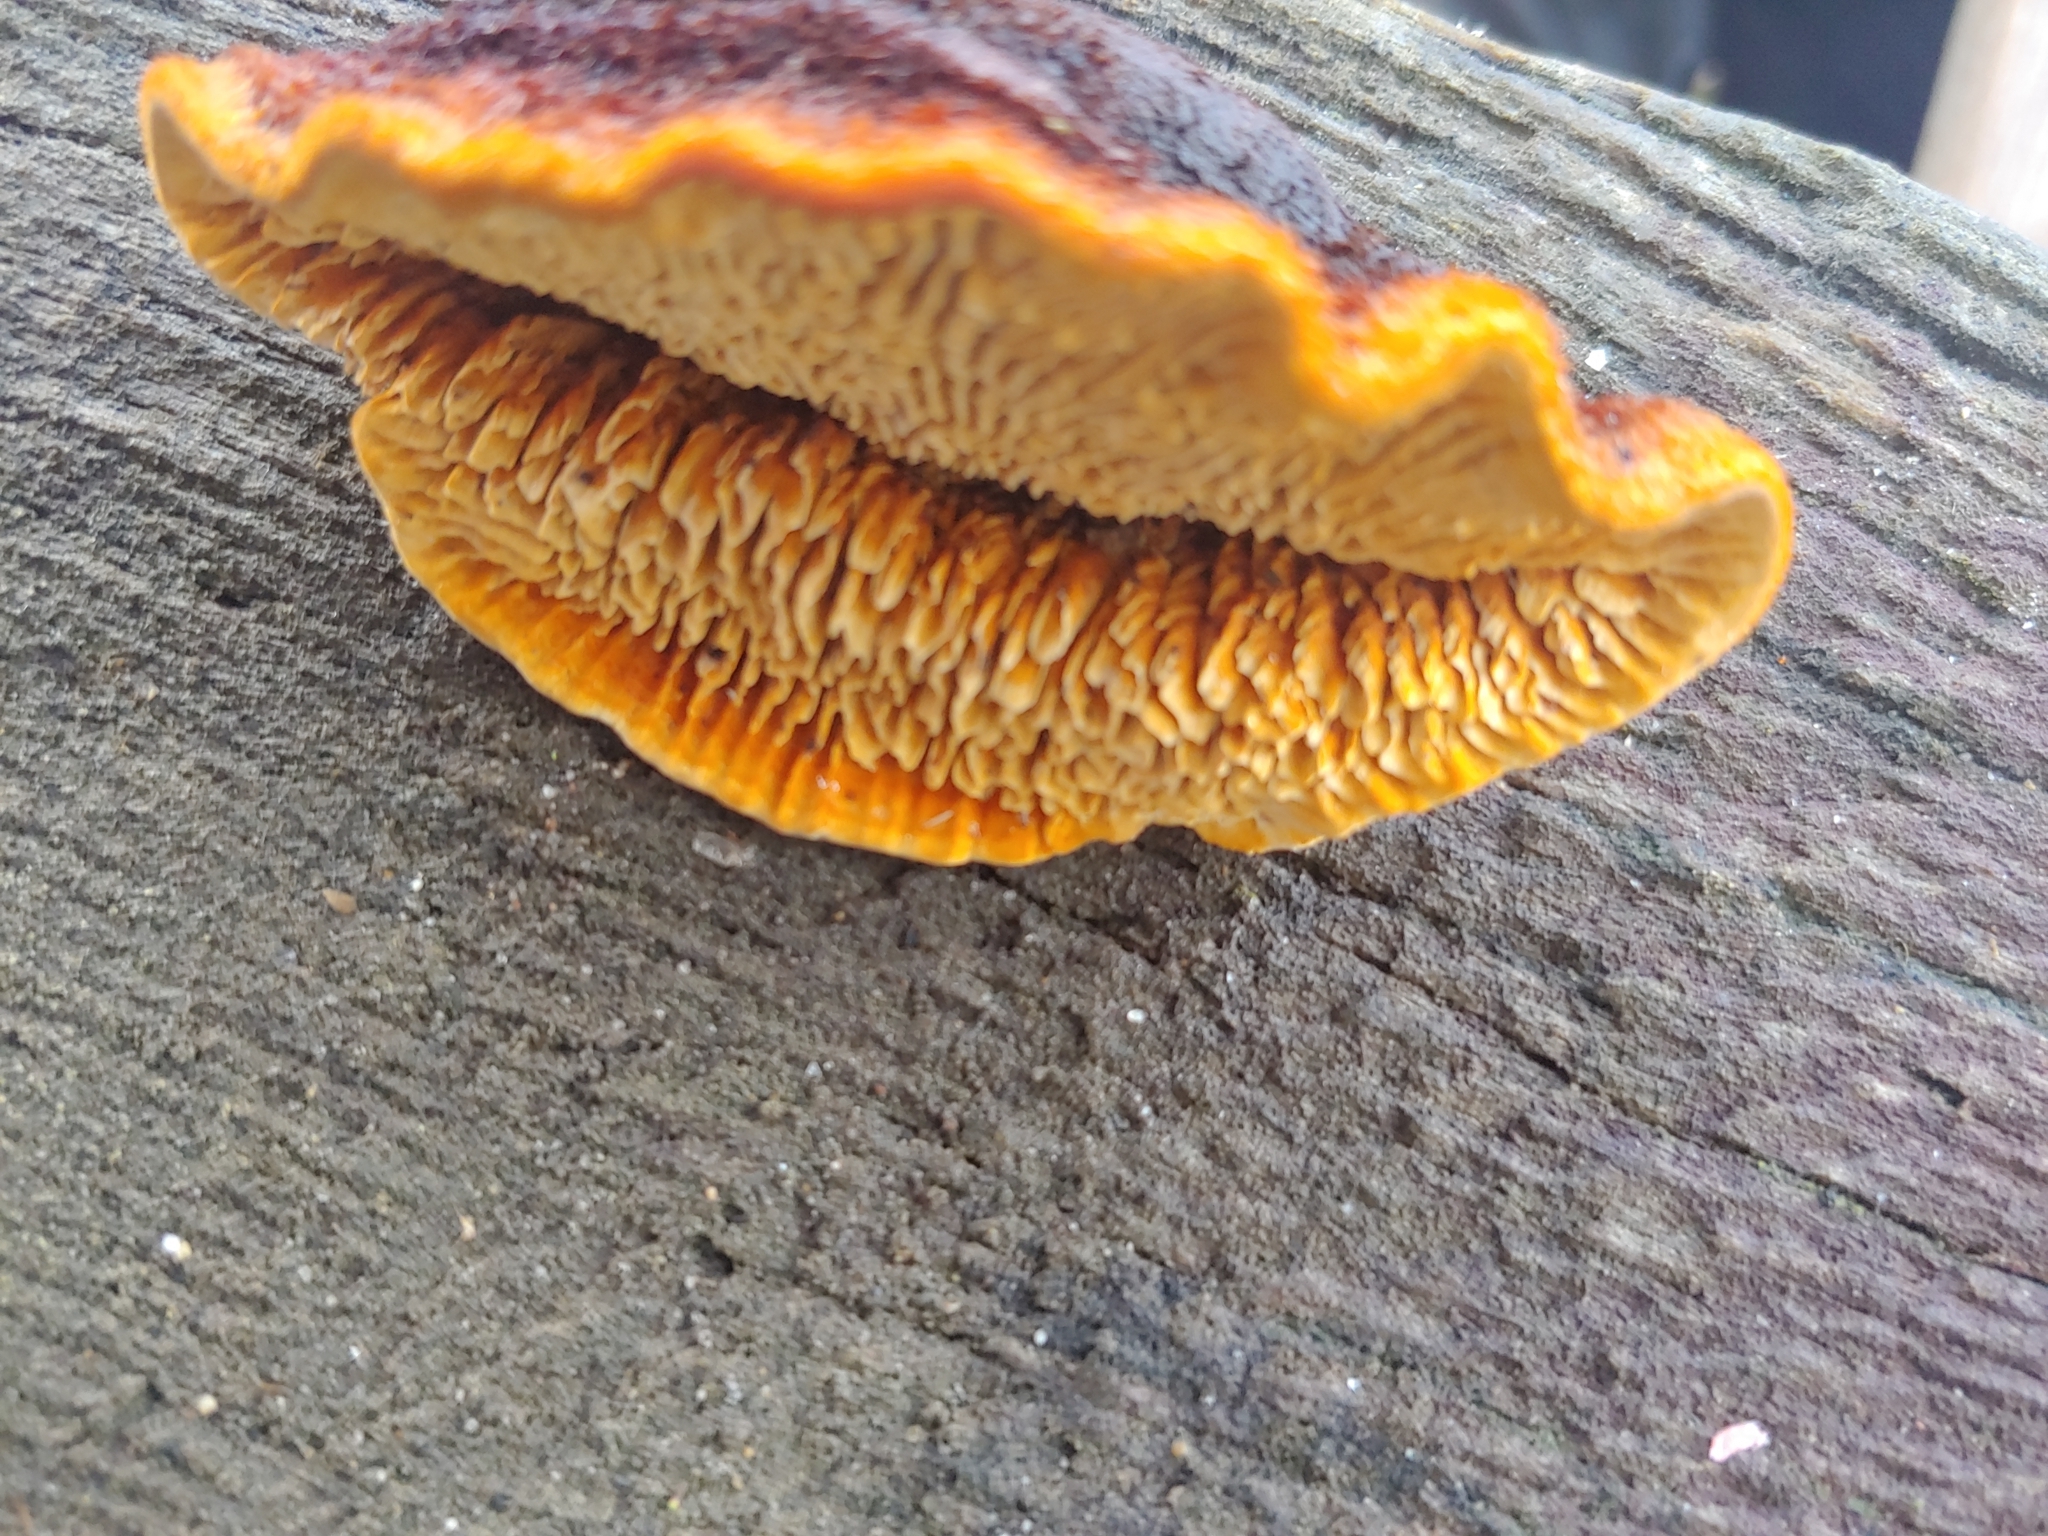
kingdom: Fungi
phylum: Basidiomycota
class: Agaricomycetes
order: Gloeophyllales
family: Gloeophyllaceae
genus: Gloeophyllum
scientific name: Gloeophyllum sepiarium
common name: Conifer mazegill
